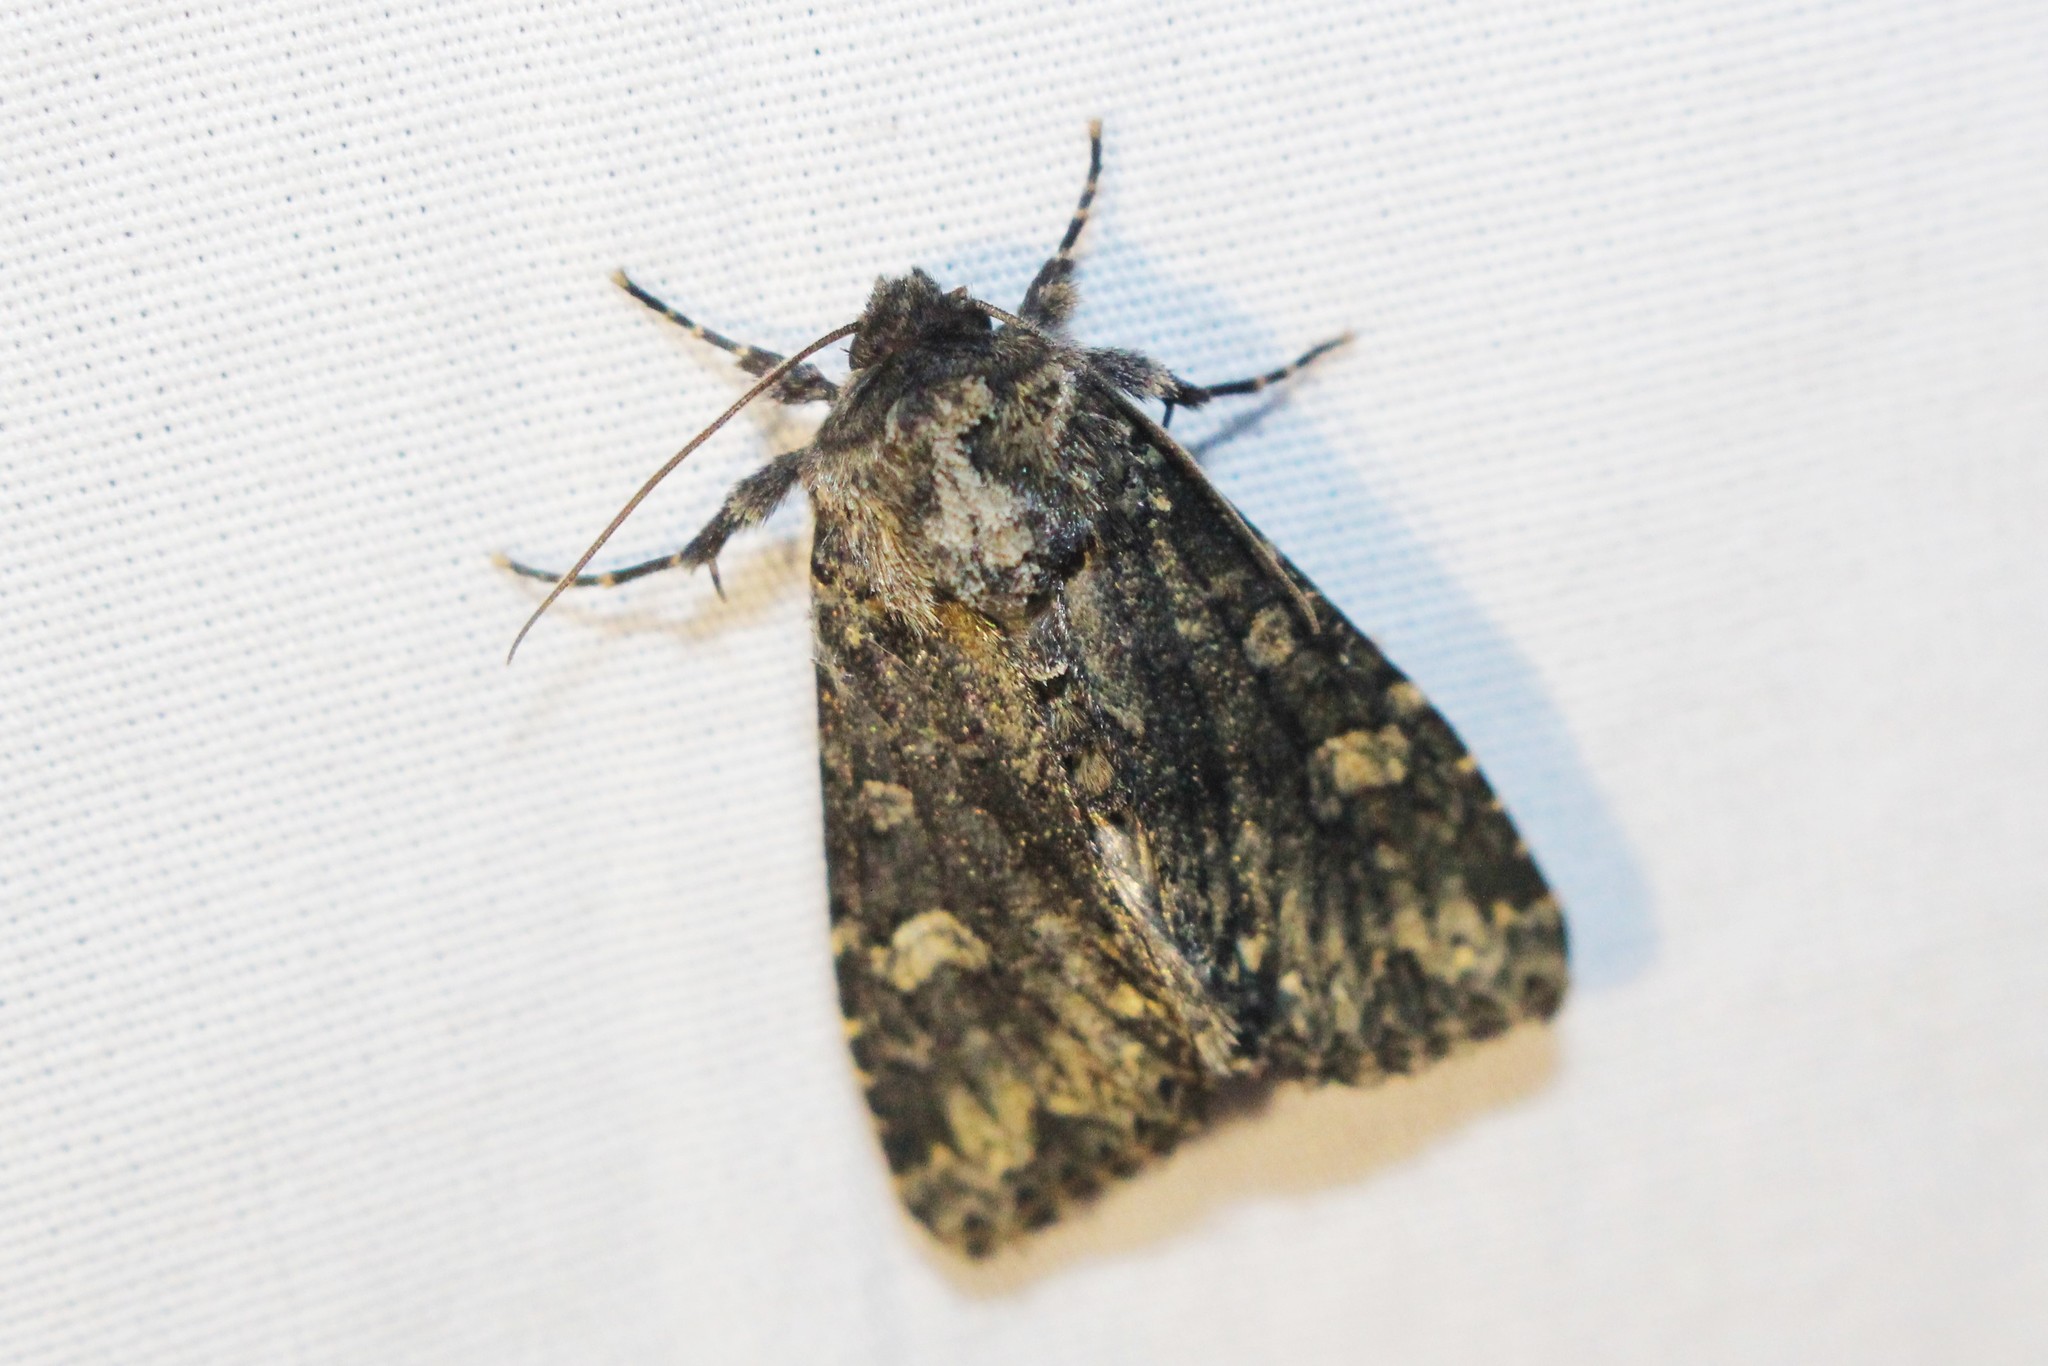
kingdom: Animalia
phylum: Arthropoda
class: Insecta
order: Lepidoptera
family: Noctuidae
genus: Melanchra
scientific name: Melanchra adjuncta
